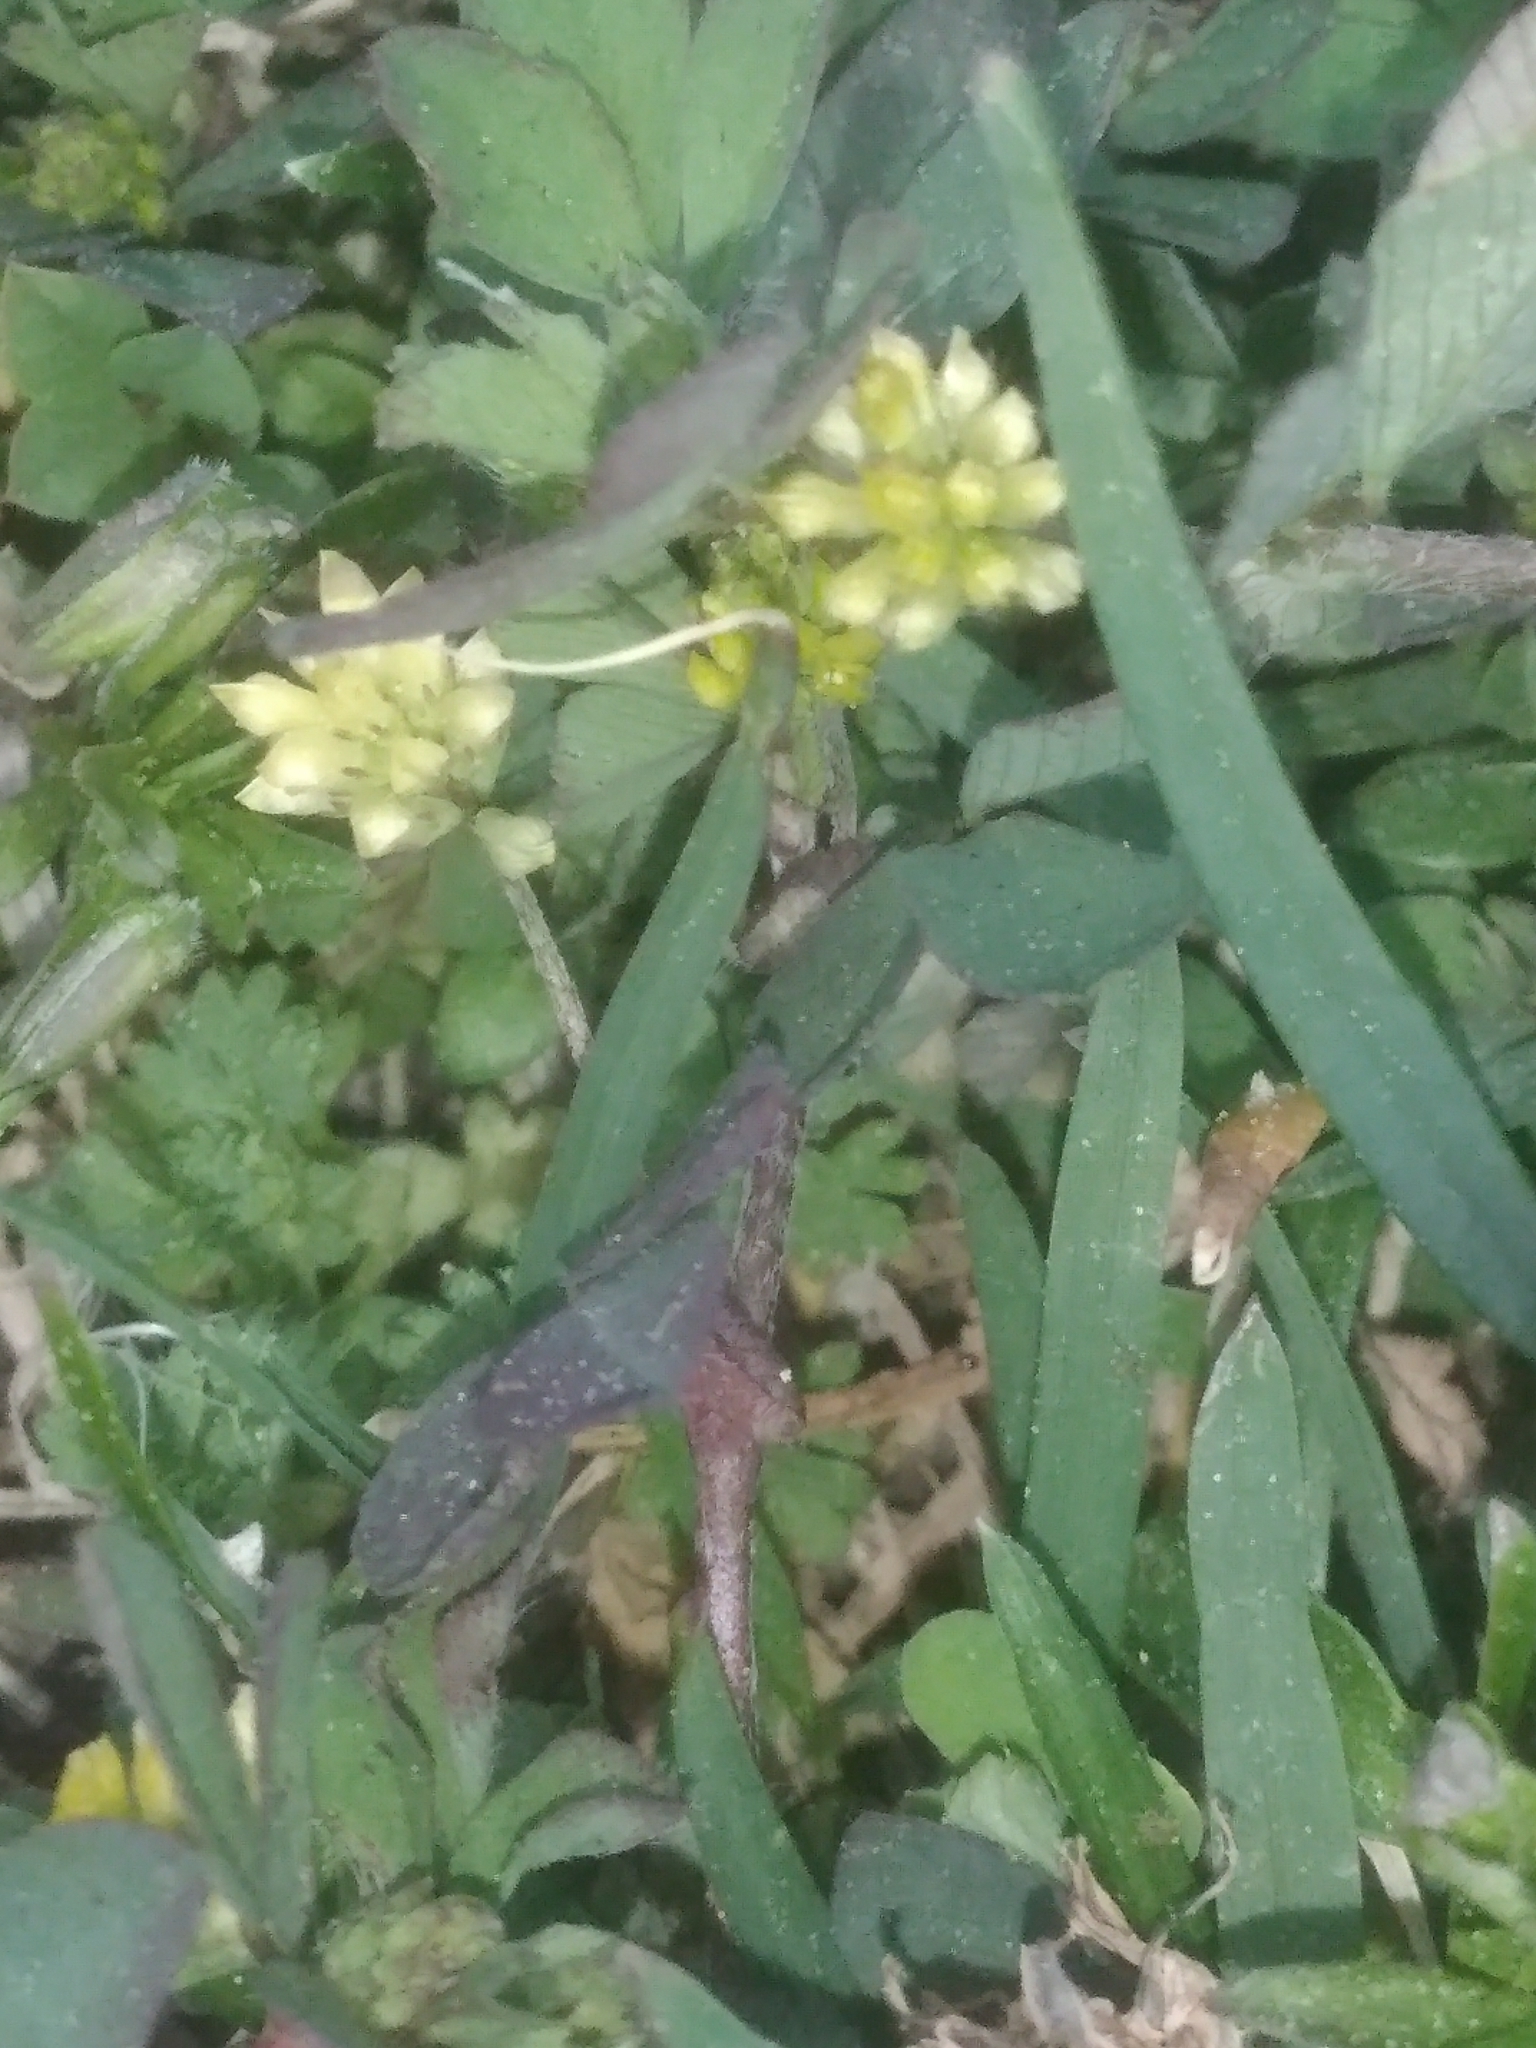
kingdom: Plantae
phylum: Tracheophyta
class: Magnoliopsida
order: Fabales
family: Fabaceae
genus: Trifolium
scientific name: Trifolium dubium
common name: Suckling clover
